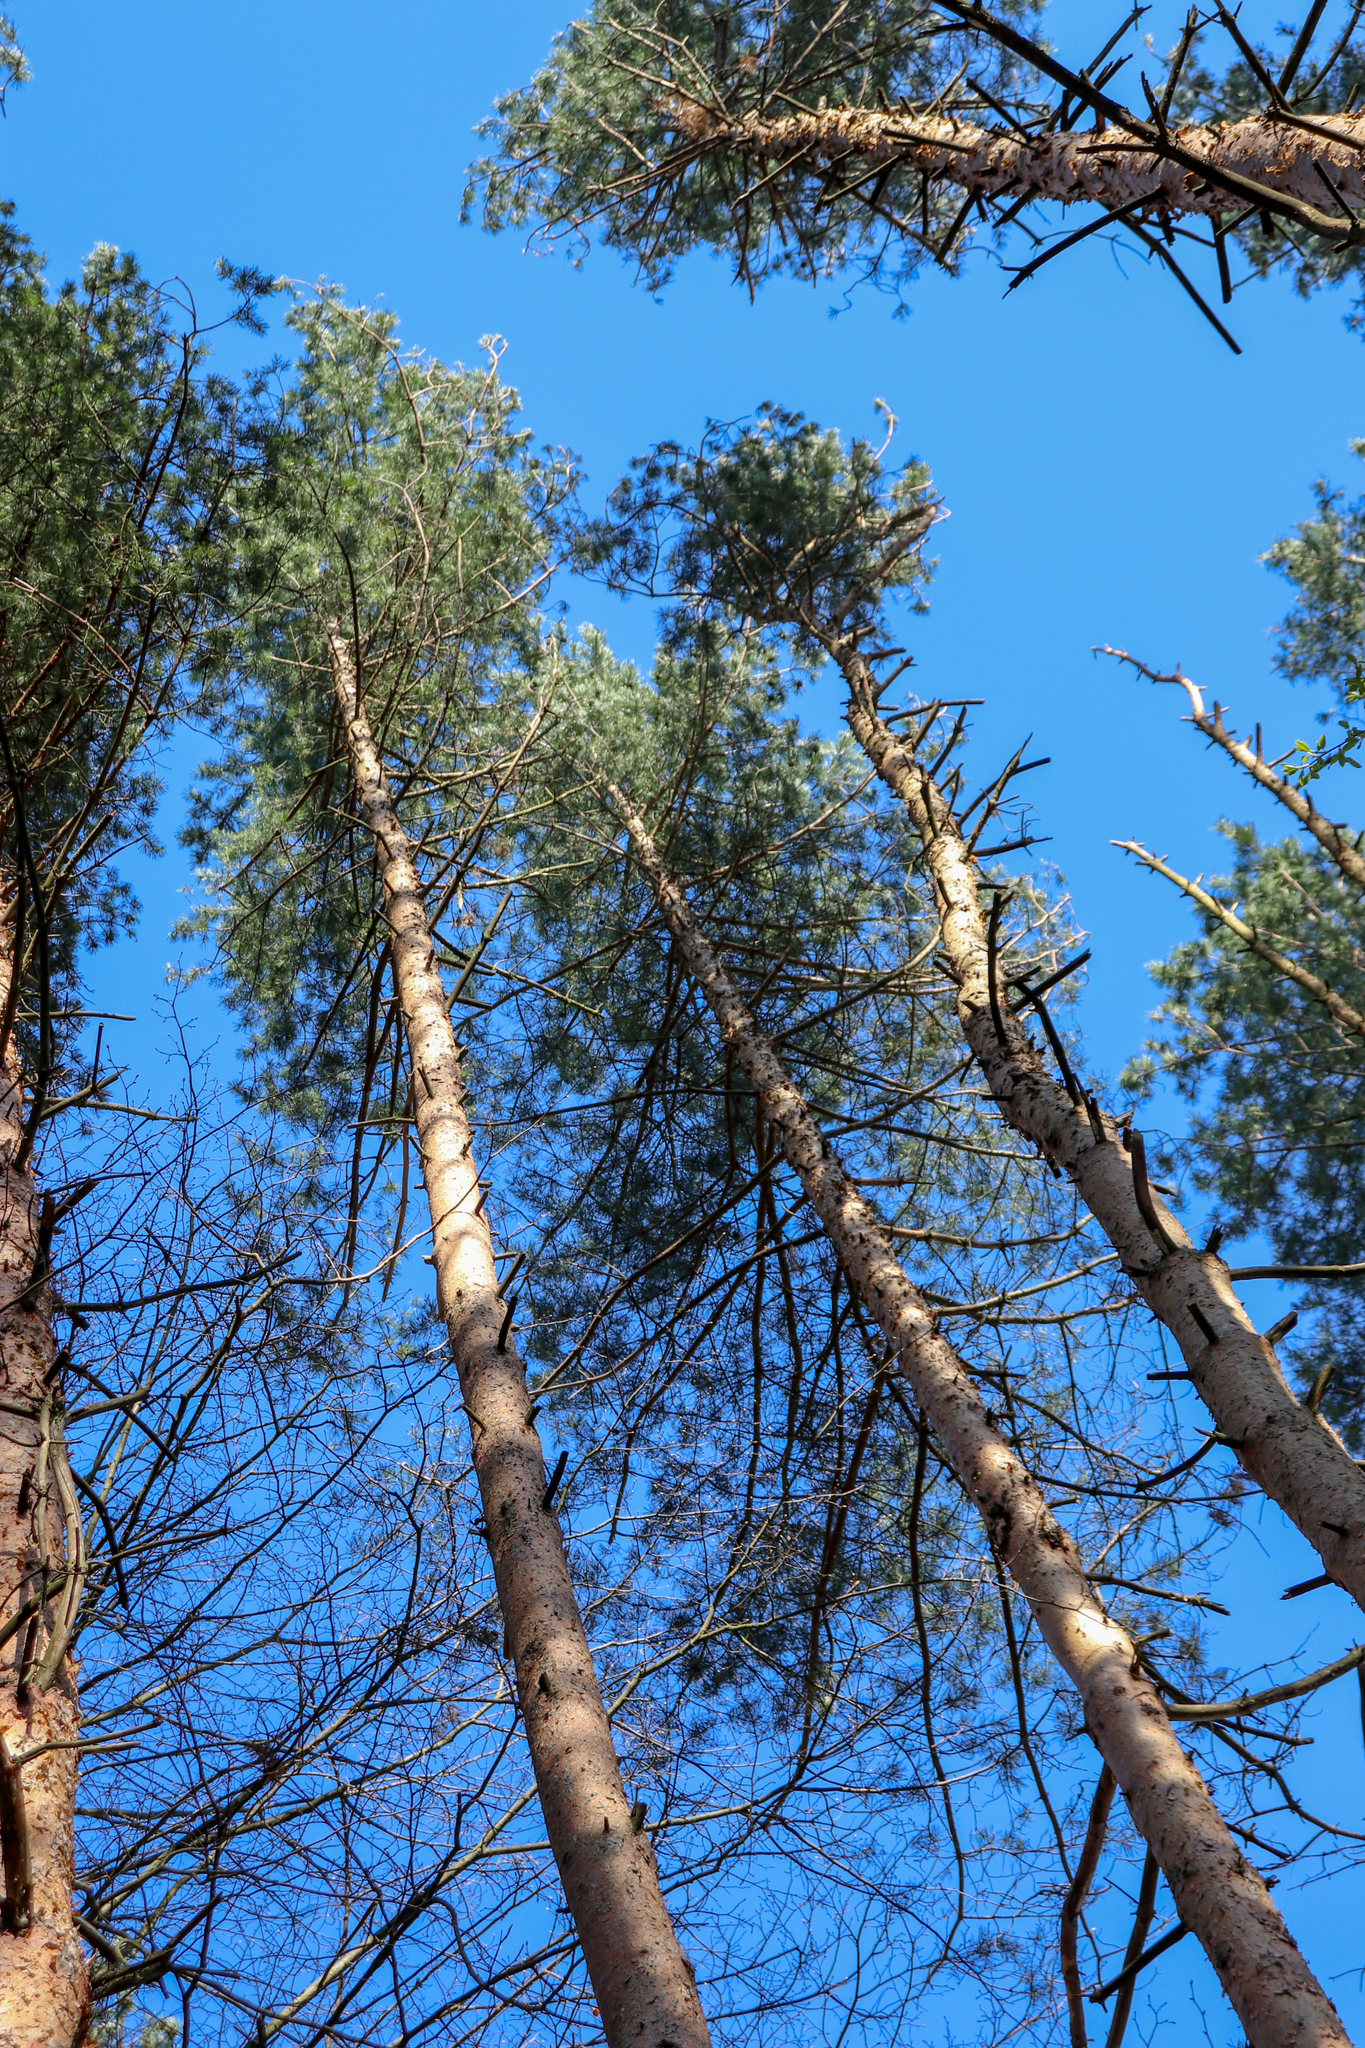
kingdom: Plantae
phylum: Tracheophyta
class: Pinopsida
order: Pinales
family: Pinaceae
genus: Pinus
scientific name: Pinus sylvestris
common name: Scots pine
